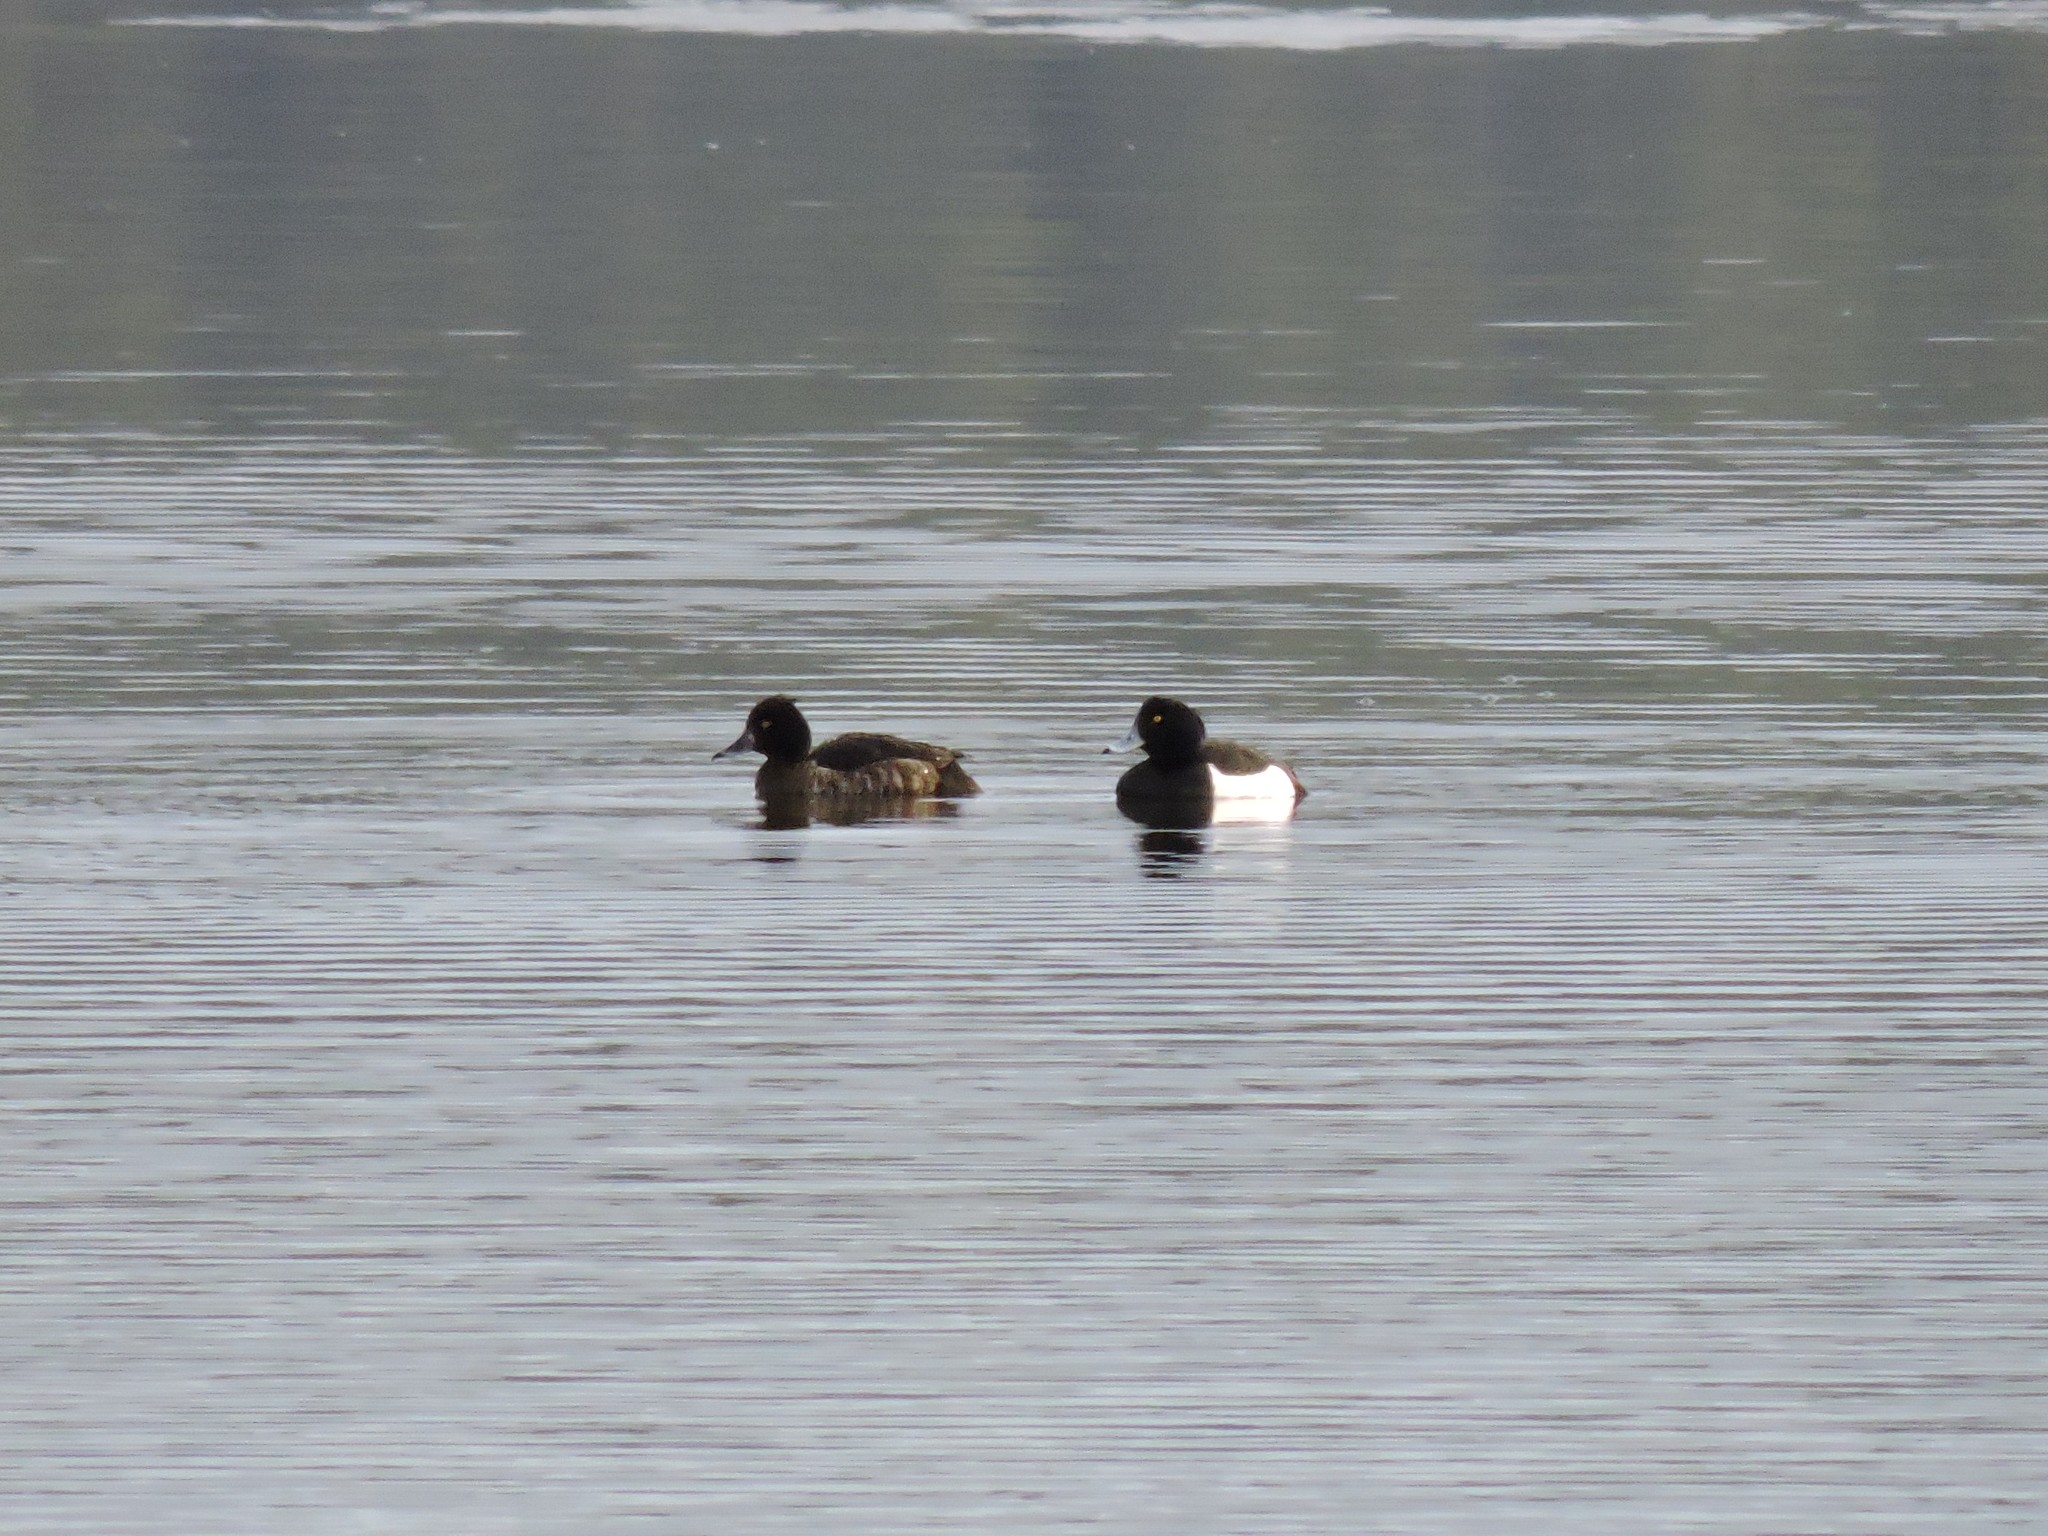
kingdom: Animalia
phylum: Chordata
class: Aves
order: Anseriformes
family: Anatidae
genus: Aythya
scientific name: Aythya fuligula
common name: Tufted duck
